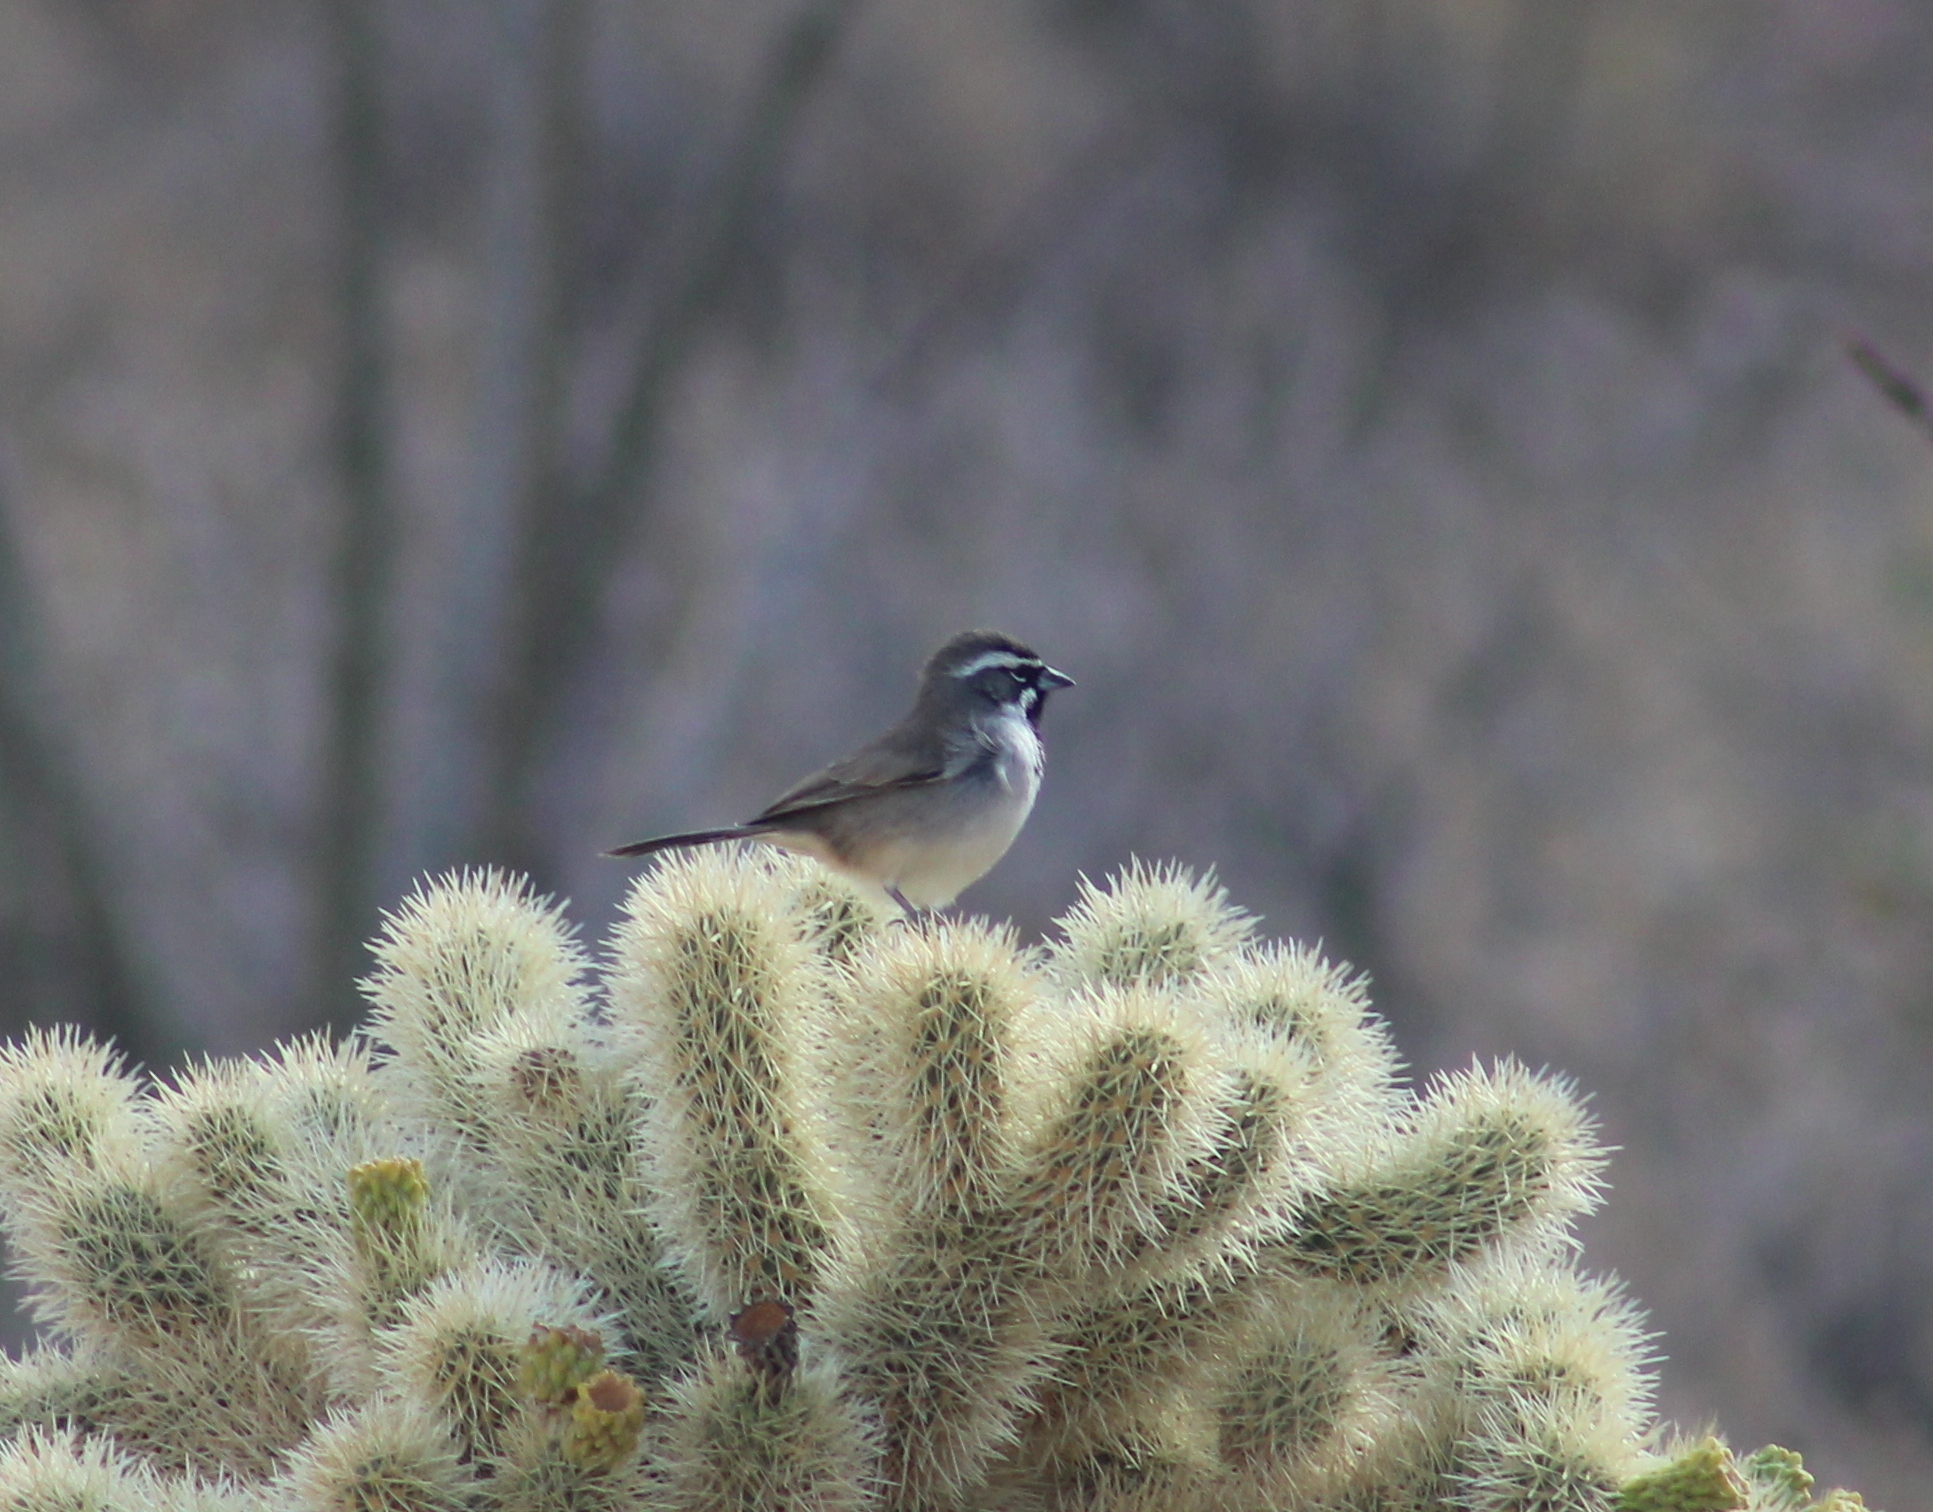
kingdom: Animalia
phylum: Chordata
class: Aves
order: Passeriformes
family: Passerellidae
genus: Amphispiza
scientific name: Amphispiza bilineata
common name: Black-throated sparrow
